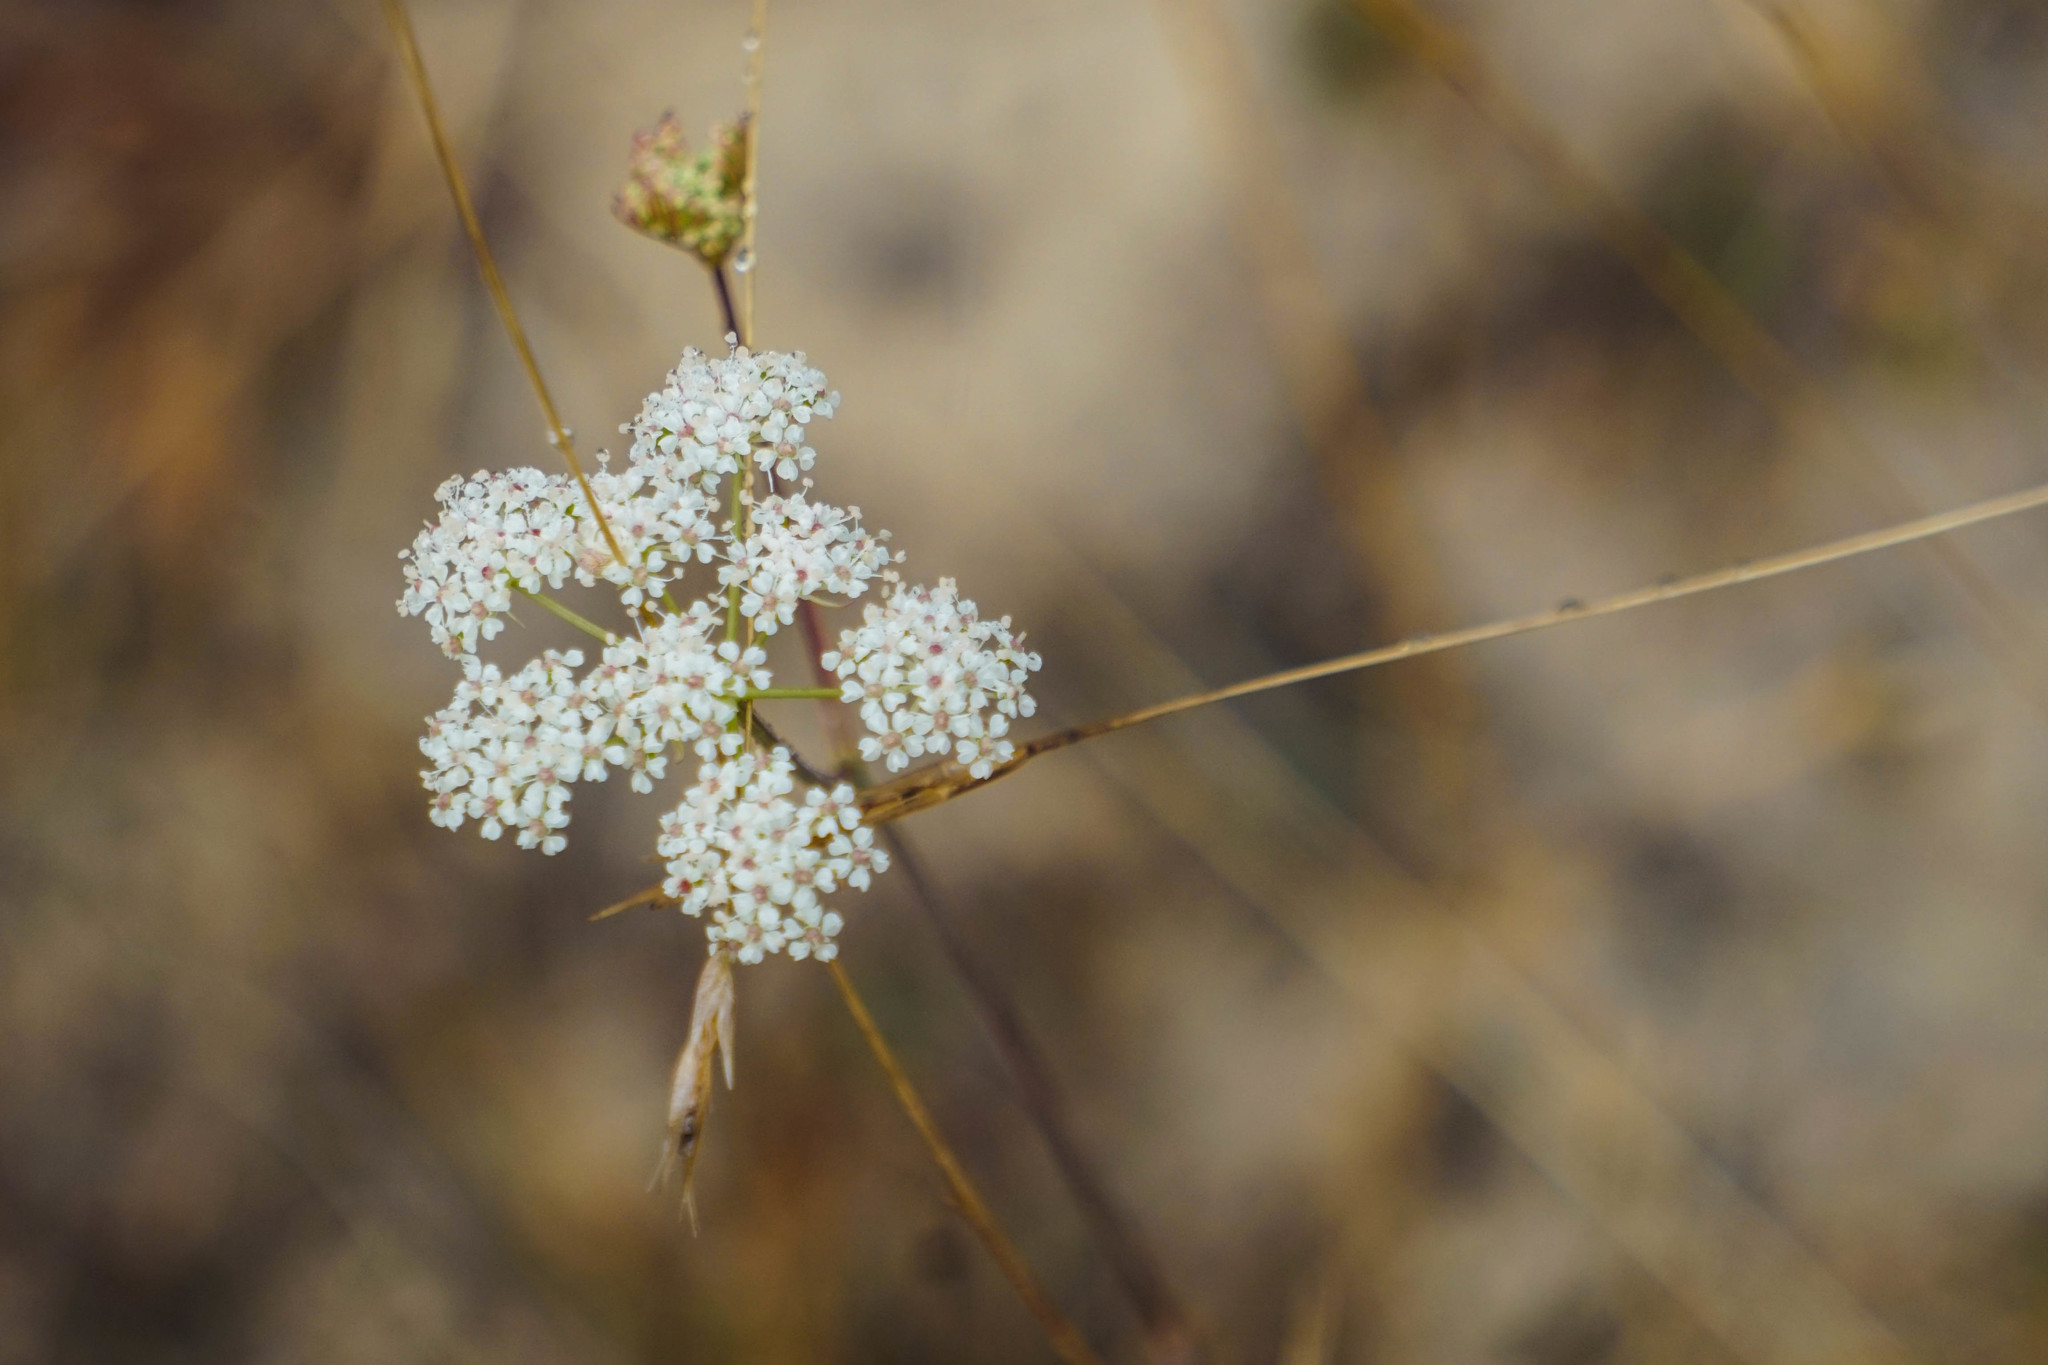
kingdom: Plantae
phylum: Tracheophyta
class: Magnoliopsida
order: Apiales
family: Apiaceae
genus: Perideridia
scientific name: Perideridia kelloggii
